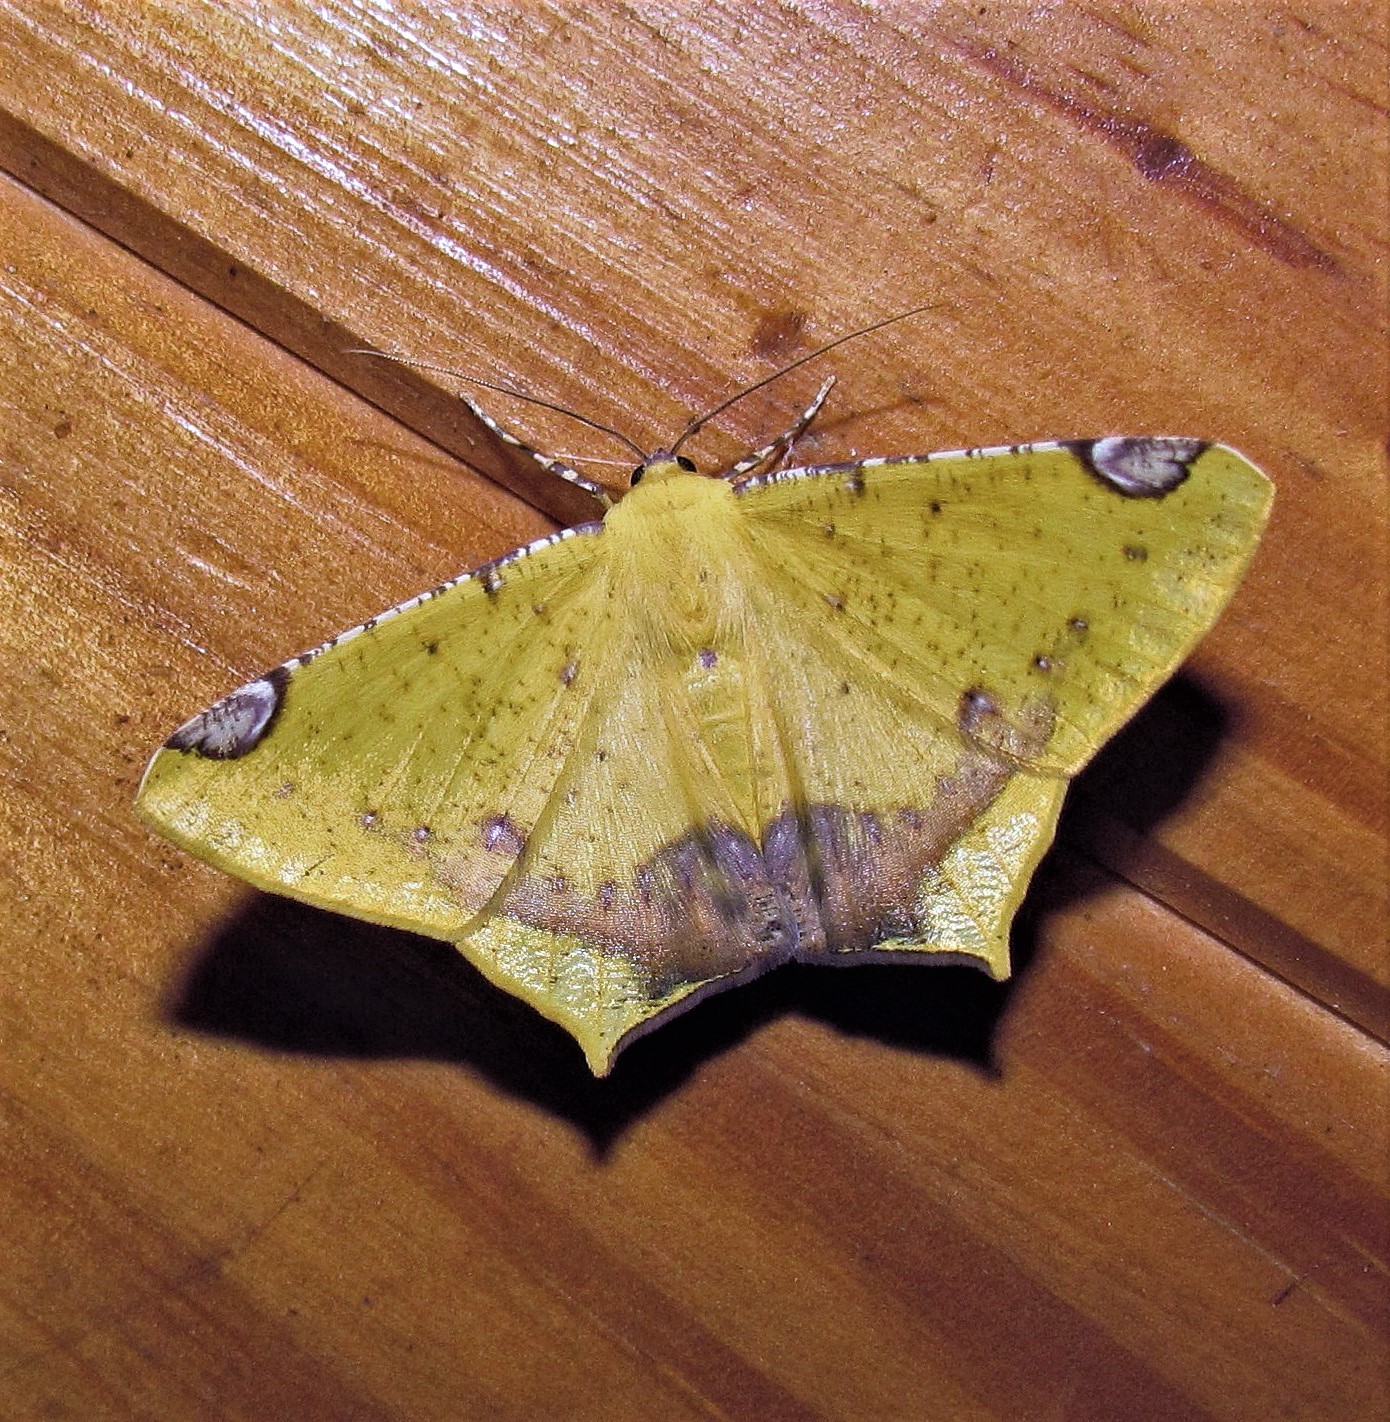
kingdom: Animalia
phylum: Arthropoda
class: Insecta
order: Lepidoptera
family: Geometridae
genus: Nepheloleuca
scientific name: Nepheloleuca politia
